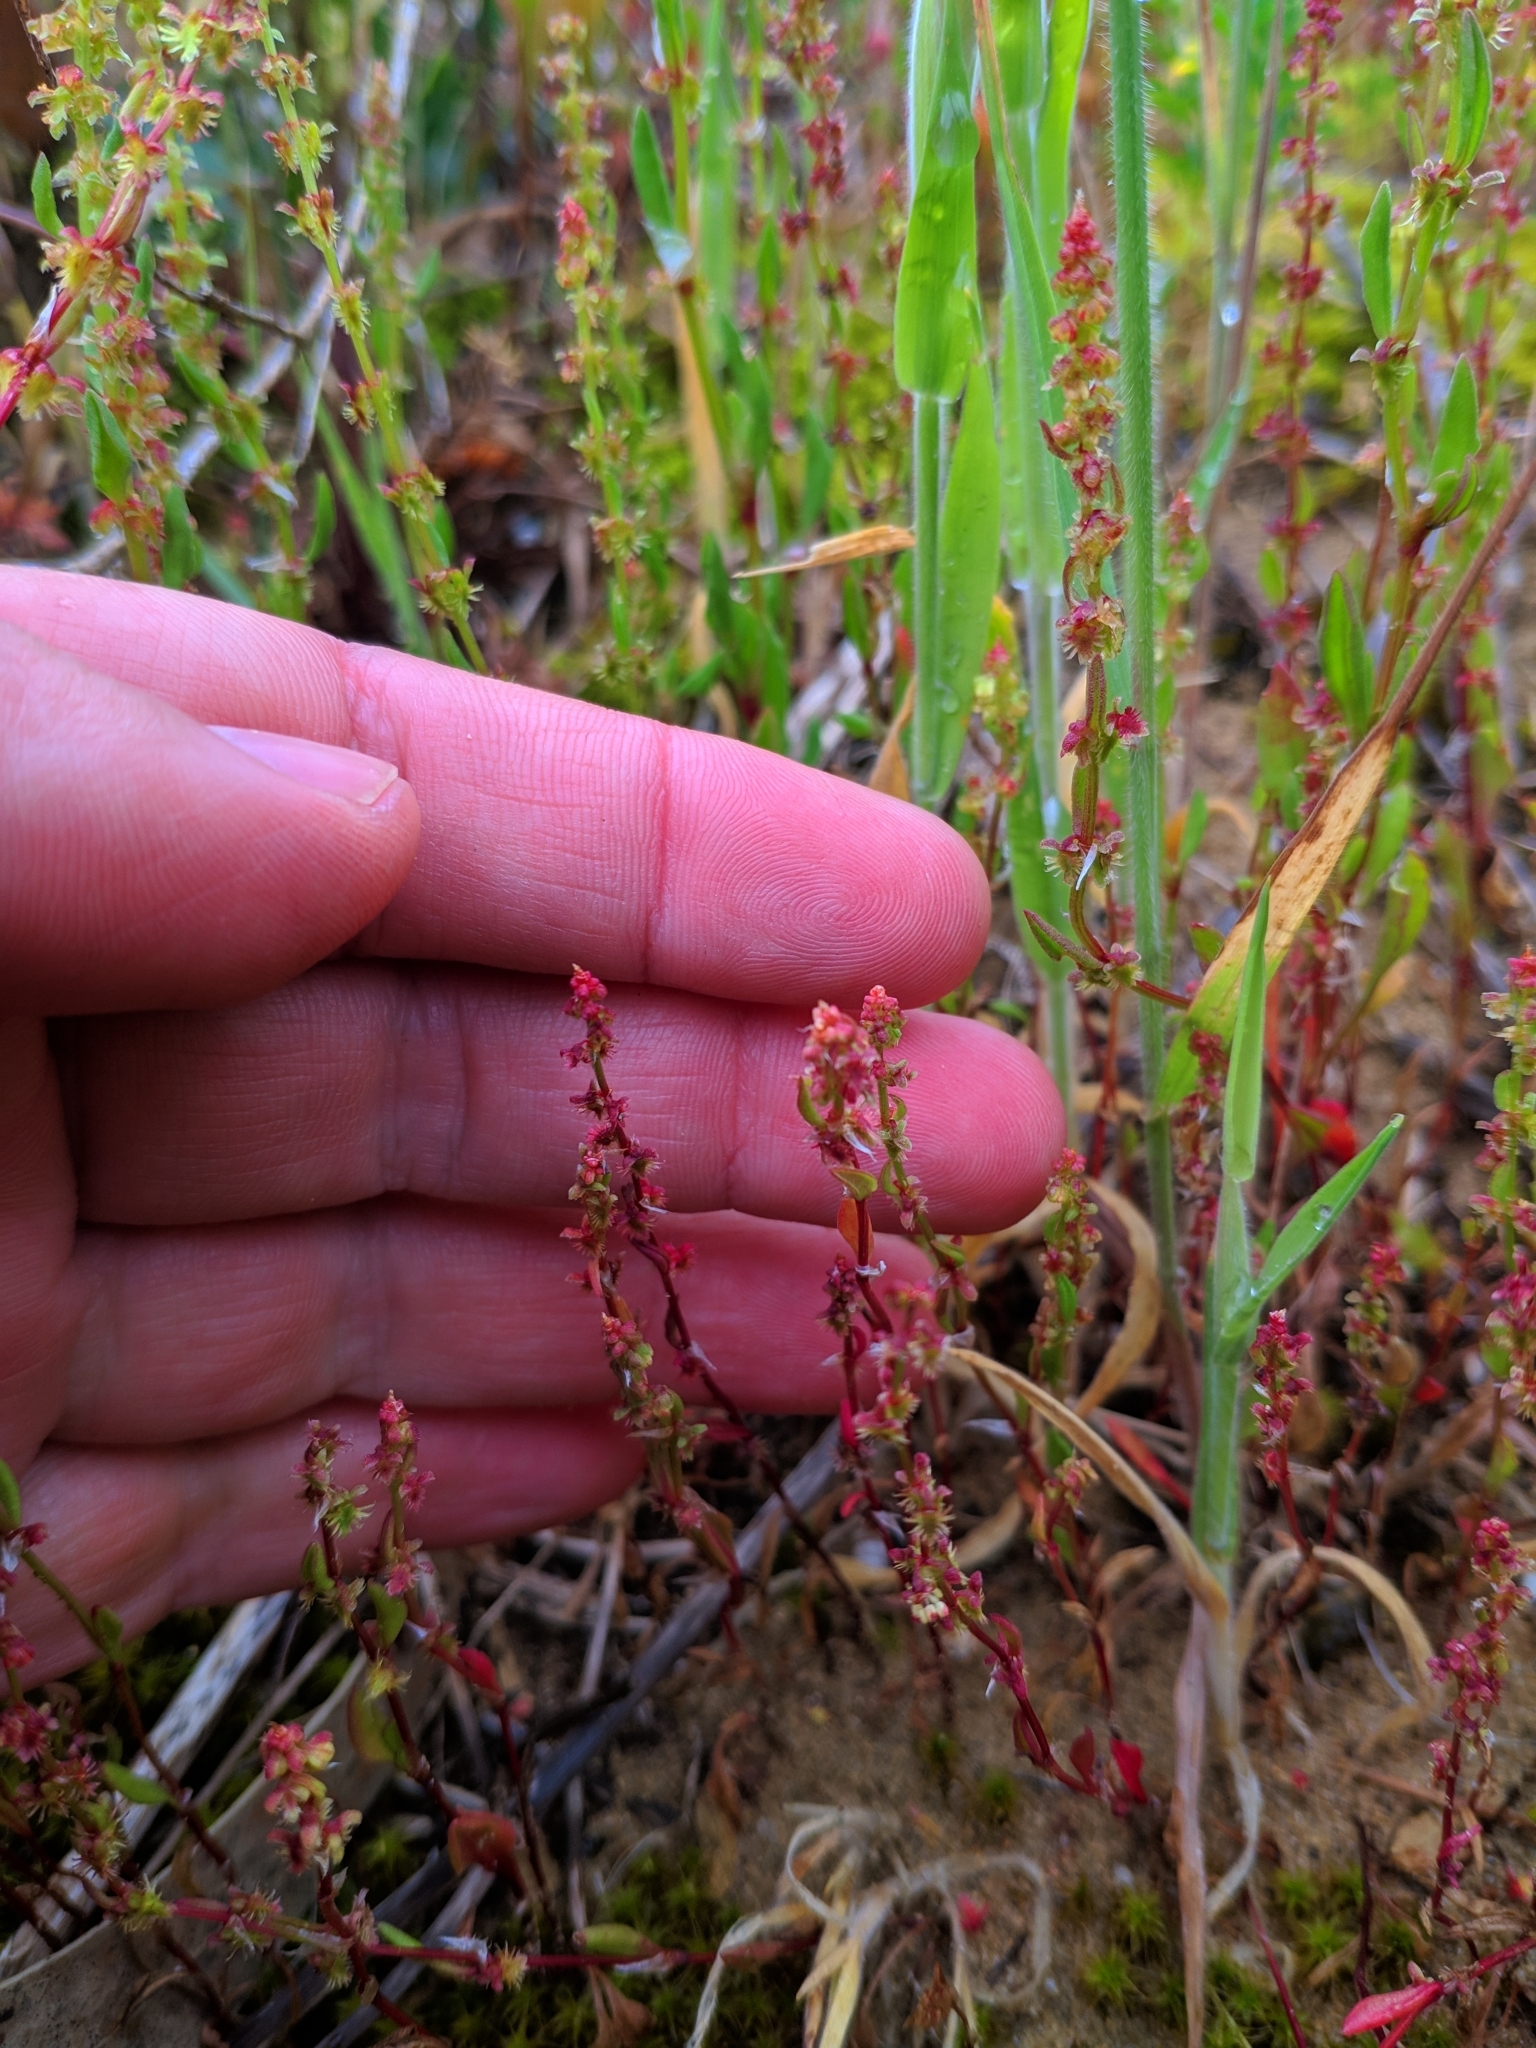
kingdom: Plantae
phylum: Tracheophyta
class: Magnoliopsida
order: Caryophyllales
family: Polygonaceae
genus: Rumex
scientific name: Rumex bucephalophorus
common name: Red dock
